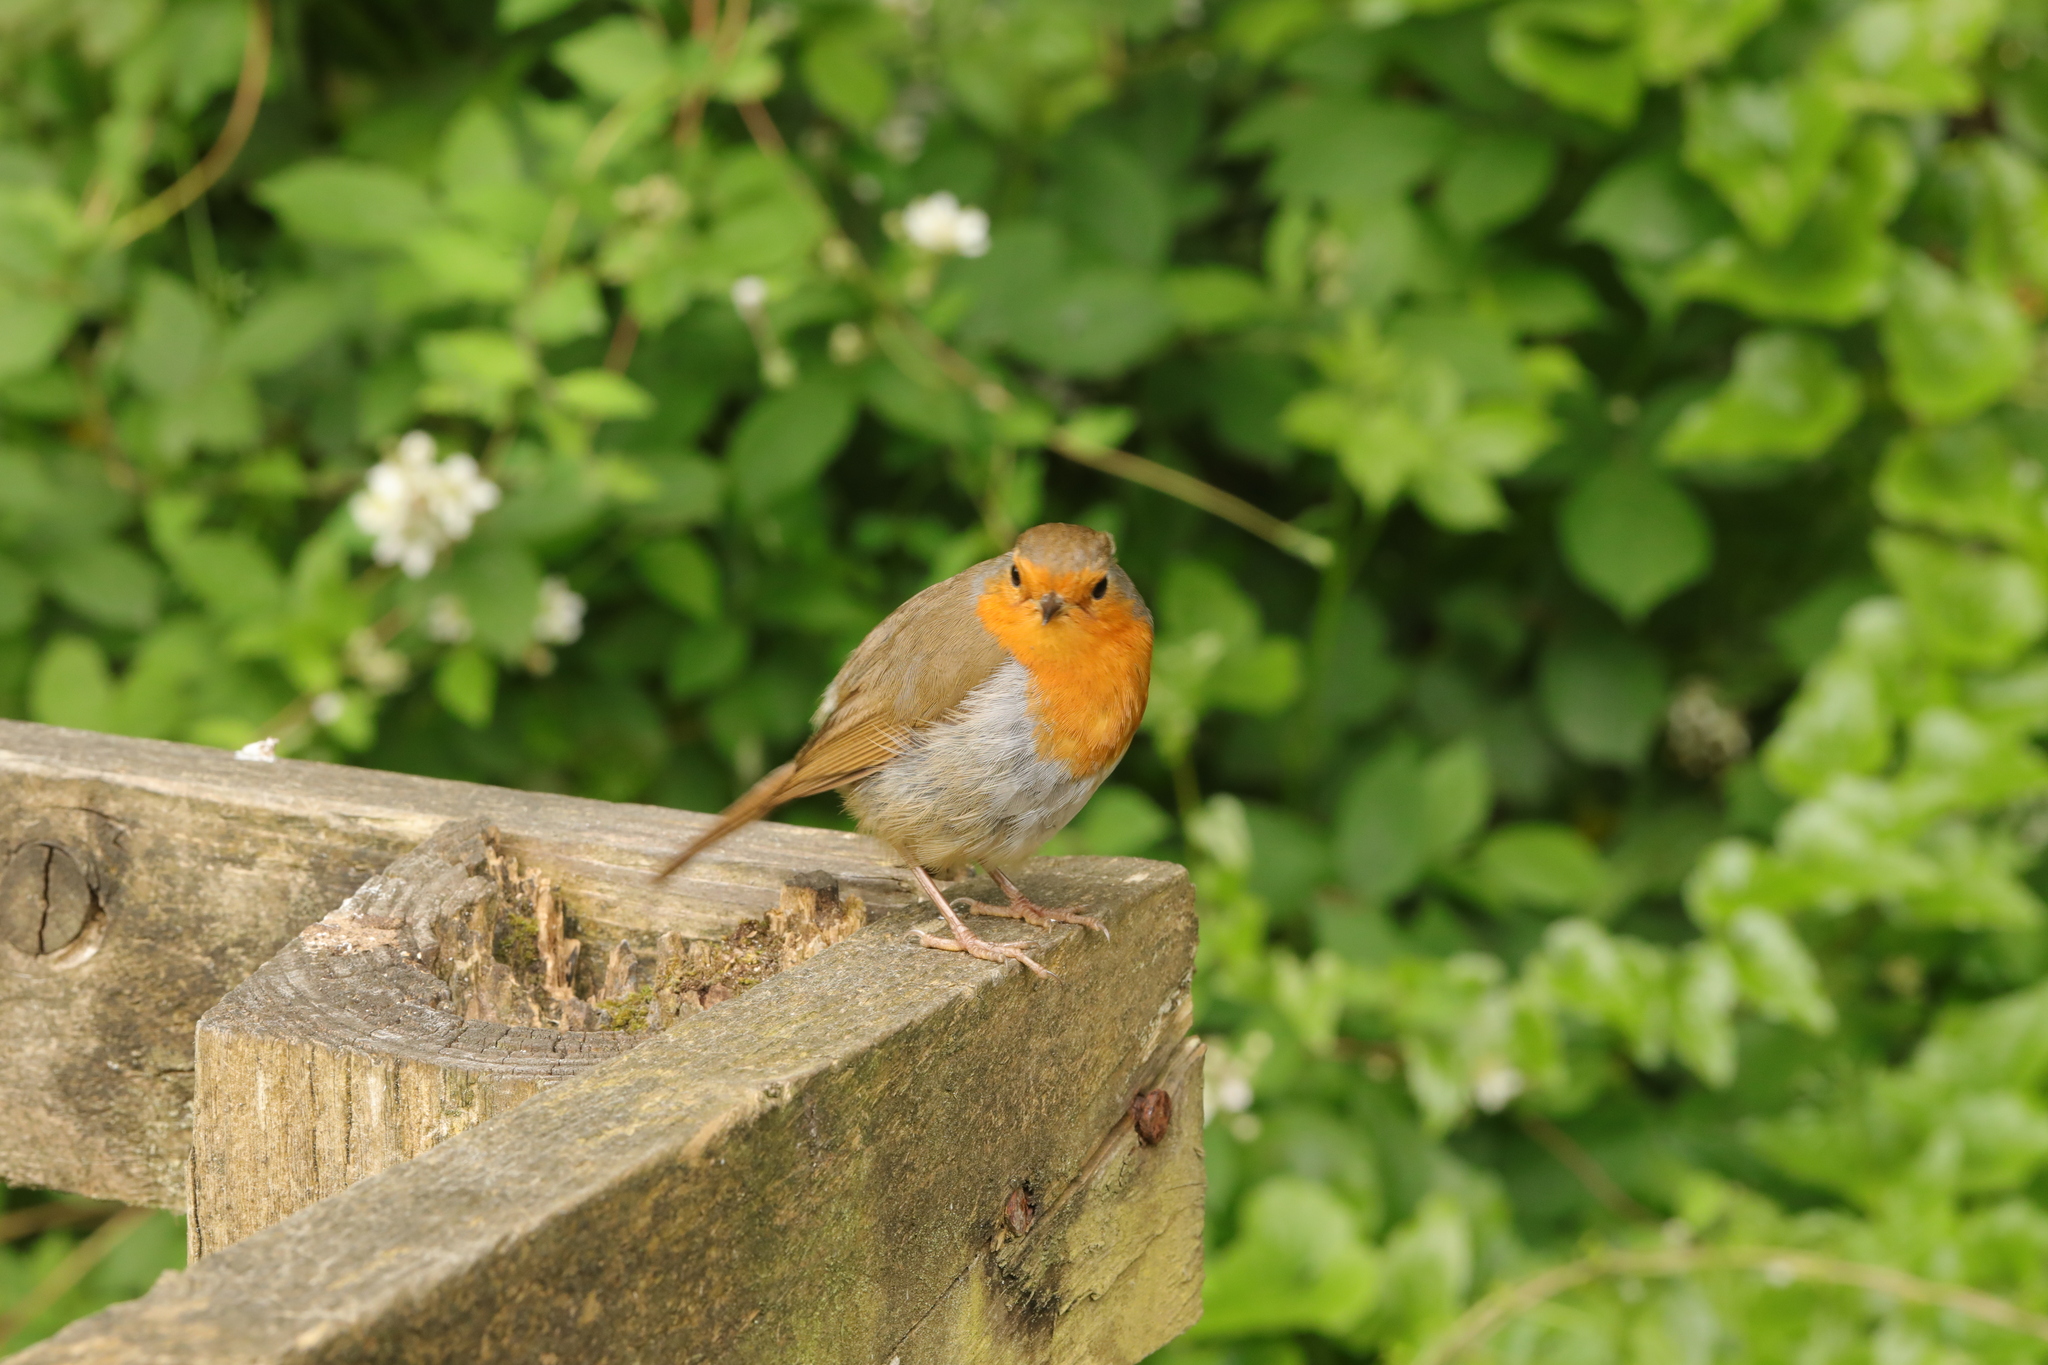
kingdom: Animalia
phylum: Chordata
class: Aves
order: Passeriformes
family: Muscicapidae
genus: Erithacus
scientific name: Erithacus rubecula
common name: European robin
